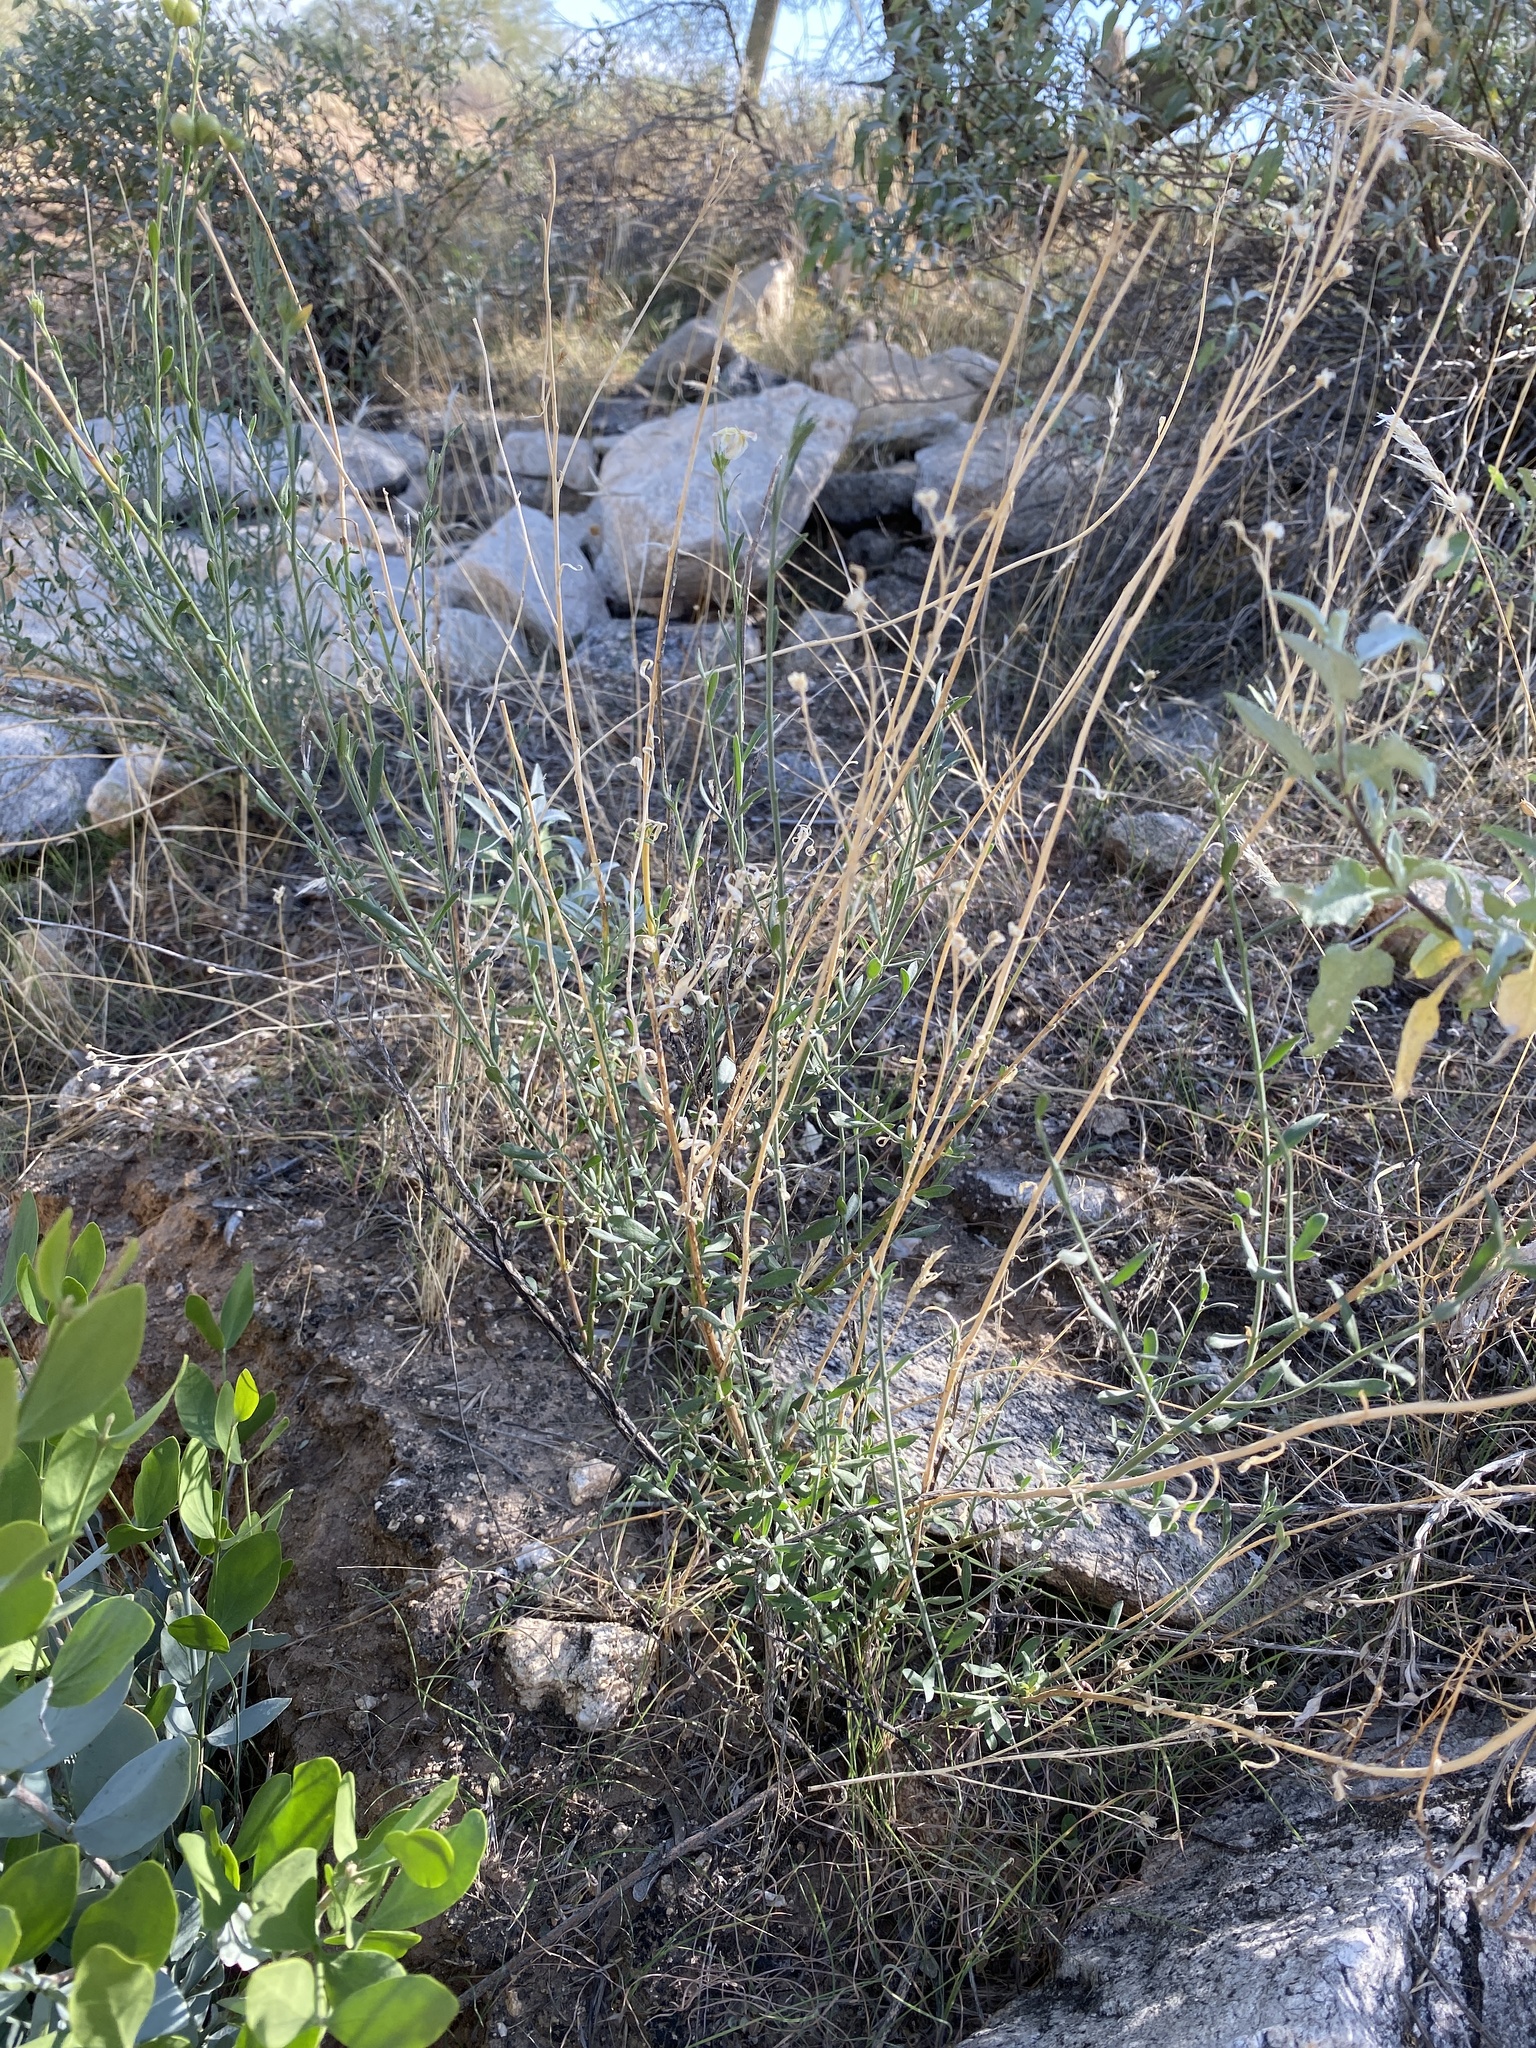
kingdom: Plantae
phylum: Tracheophyta
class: Magnoliopsida
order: Lamiales
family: Oleaceae
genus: Menodora
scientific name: Menodora scabra
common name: Rough menodora
